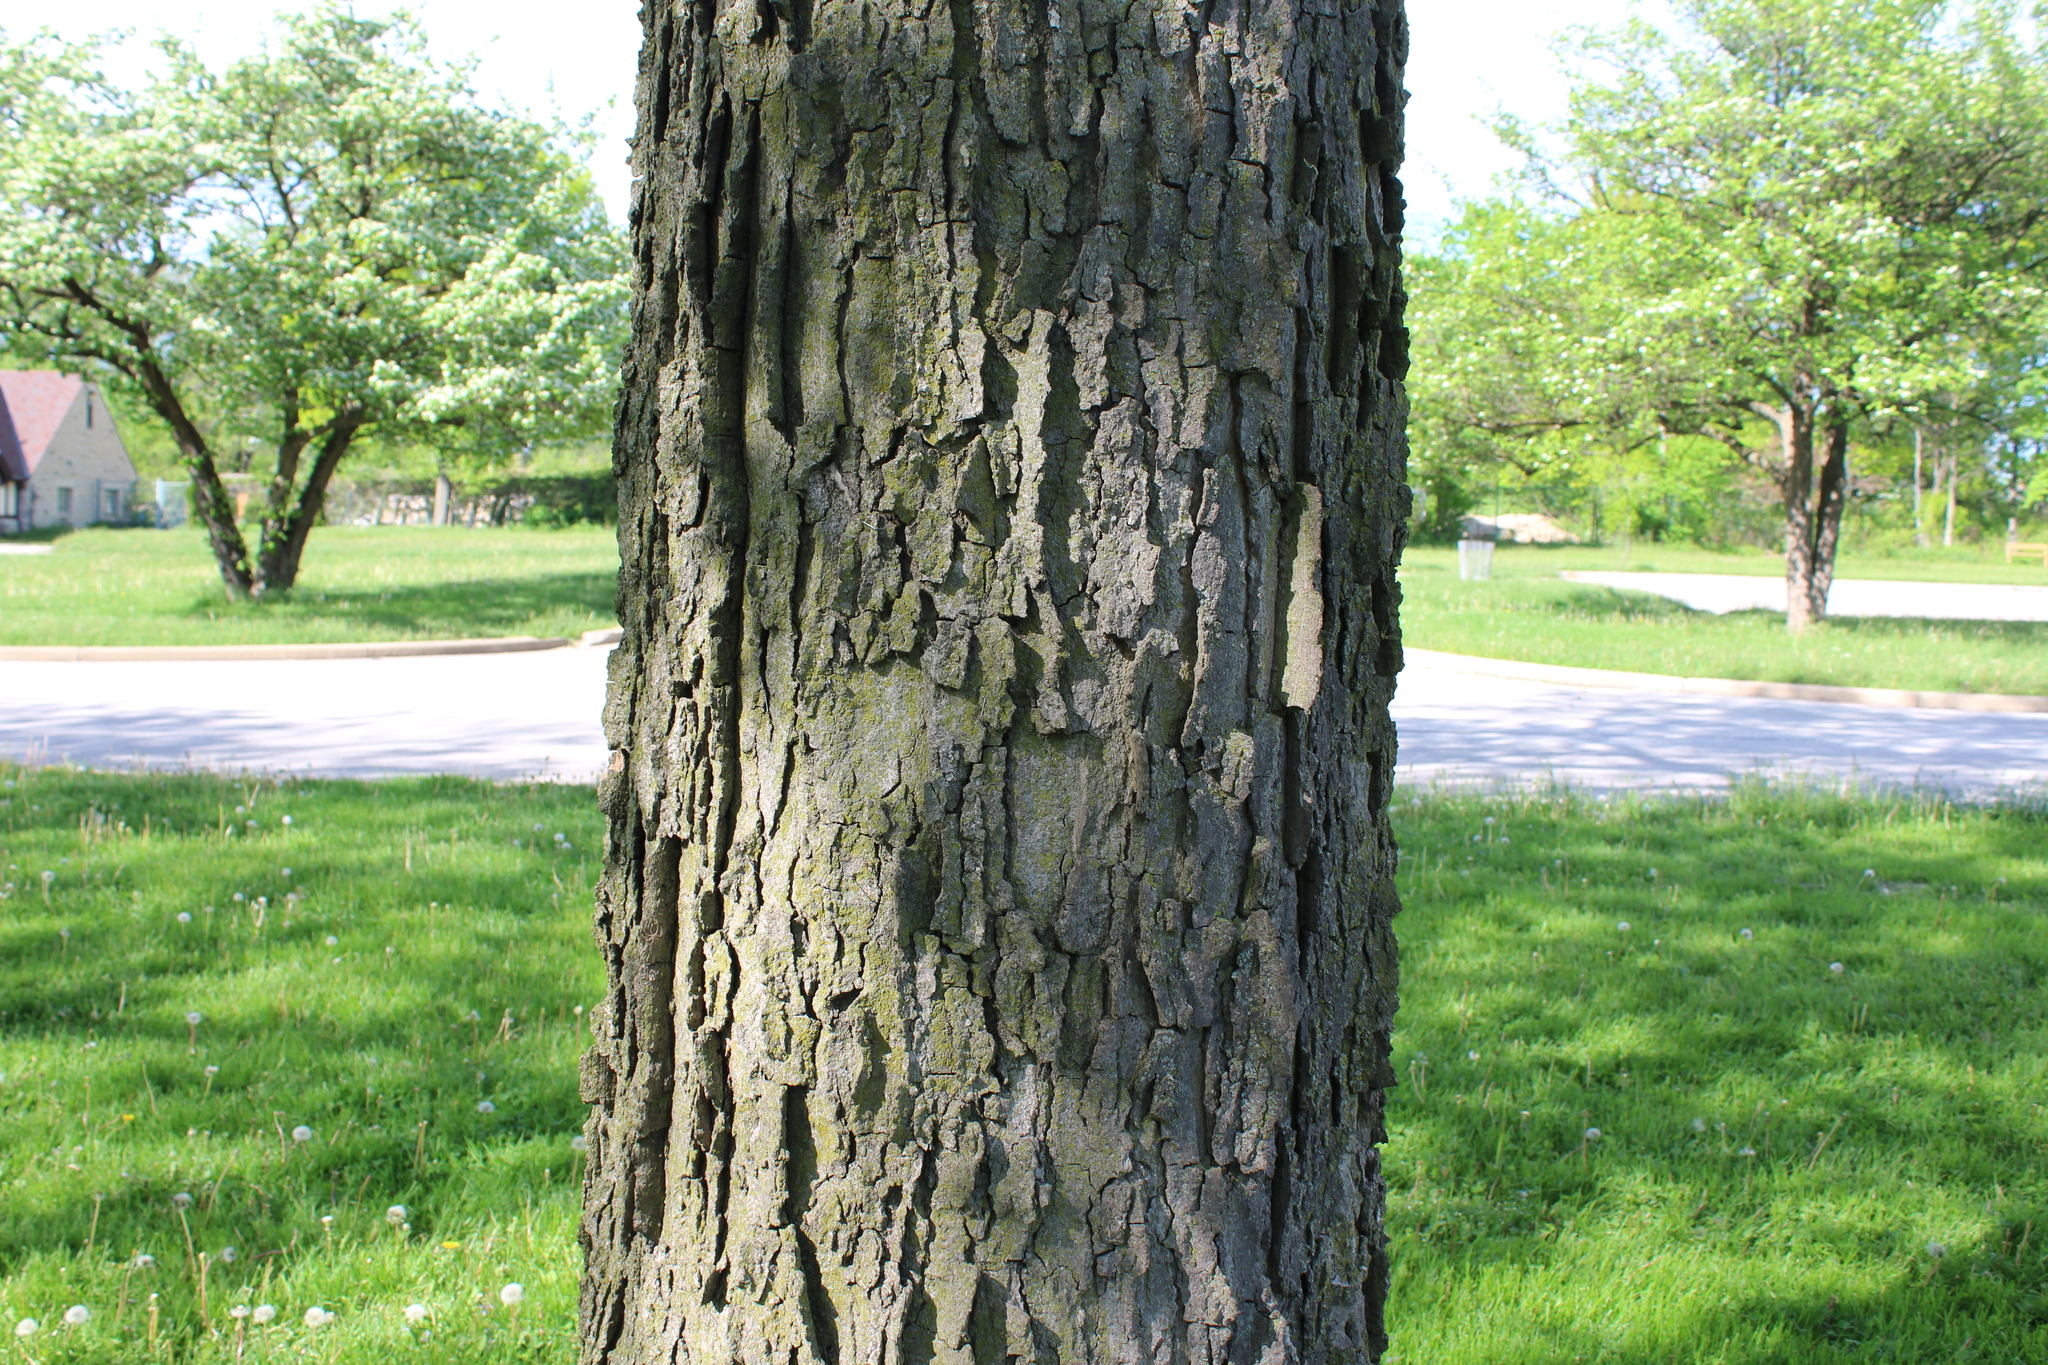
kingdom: Plantae
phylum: Tracheophyta
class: Magnoliopsida
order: Rosales
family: Cannabaceae
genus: Celtis
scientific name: Celtis occidentalis
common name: Common hackberry
